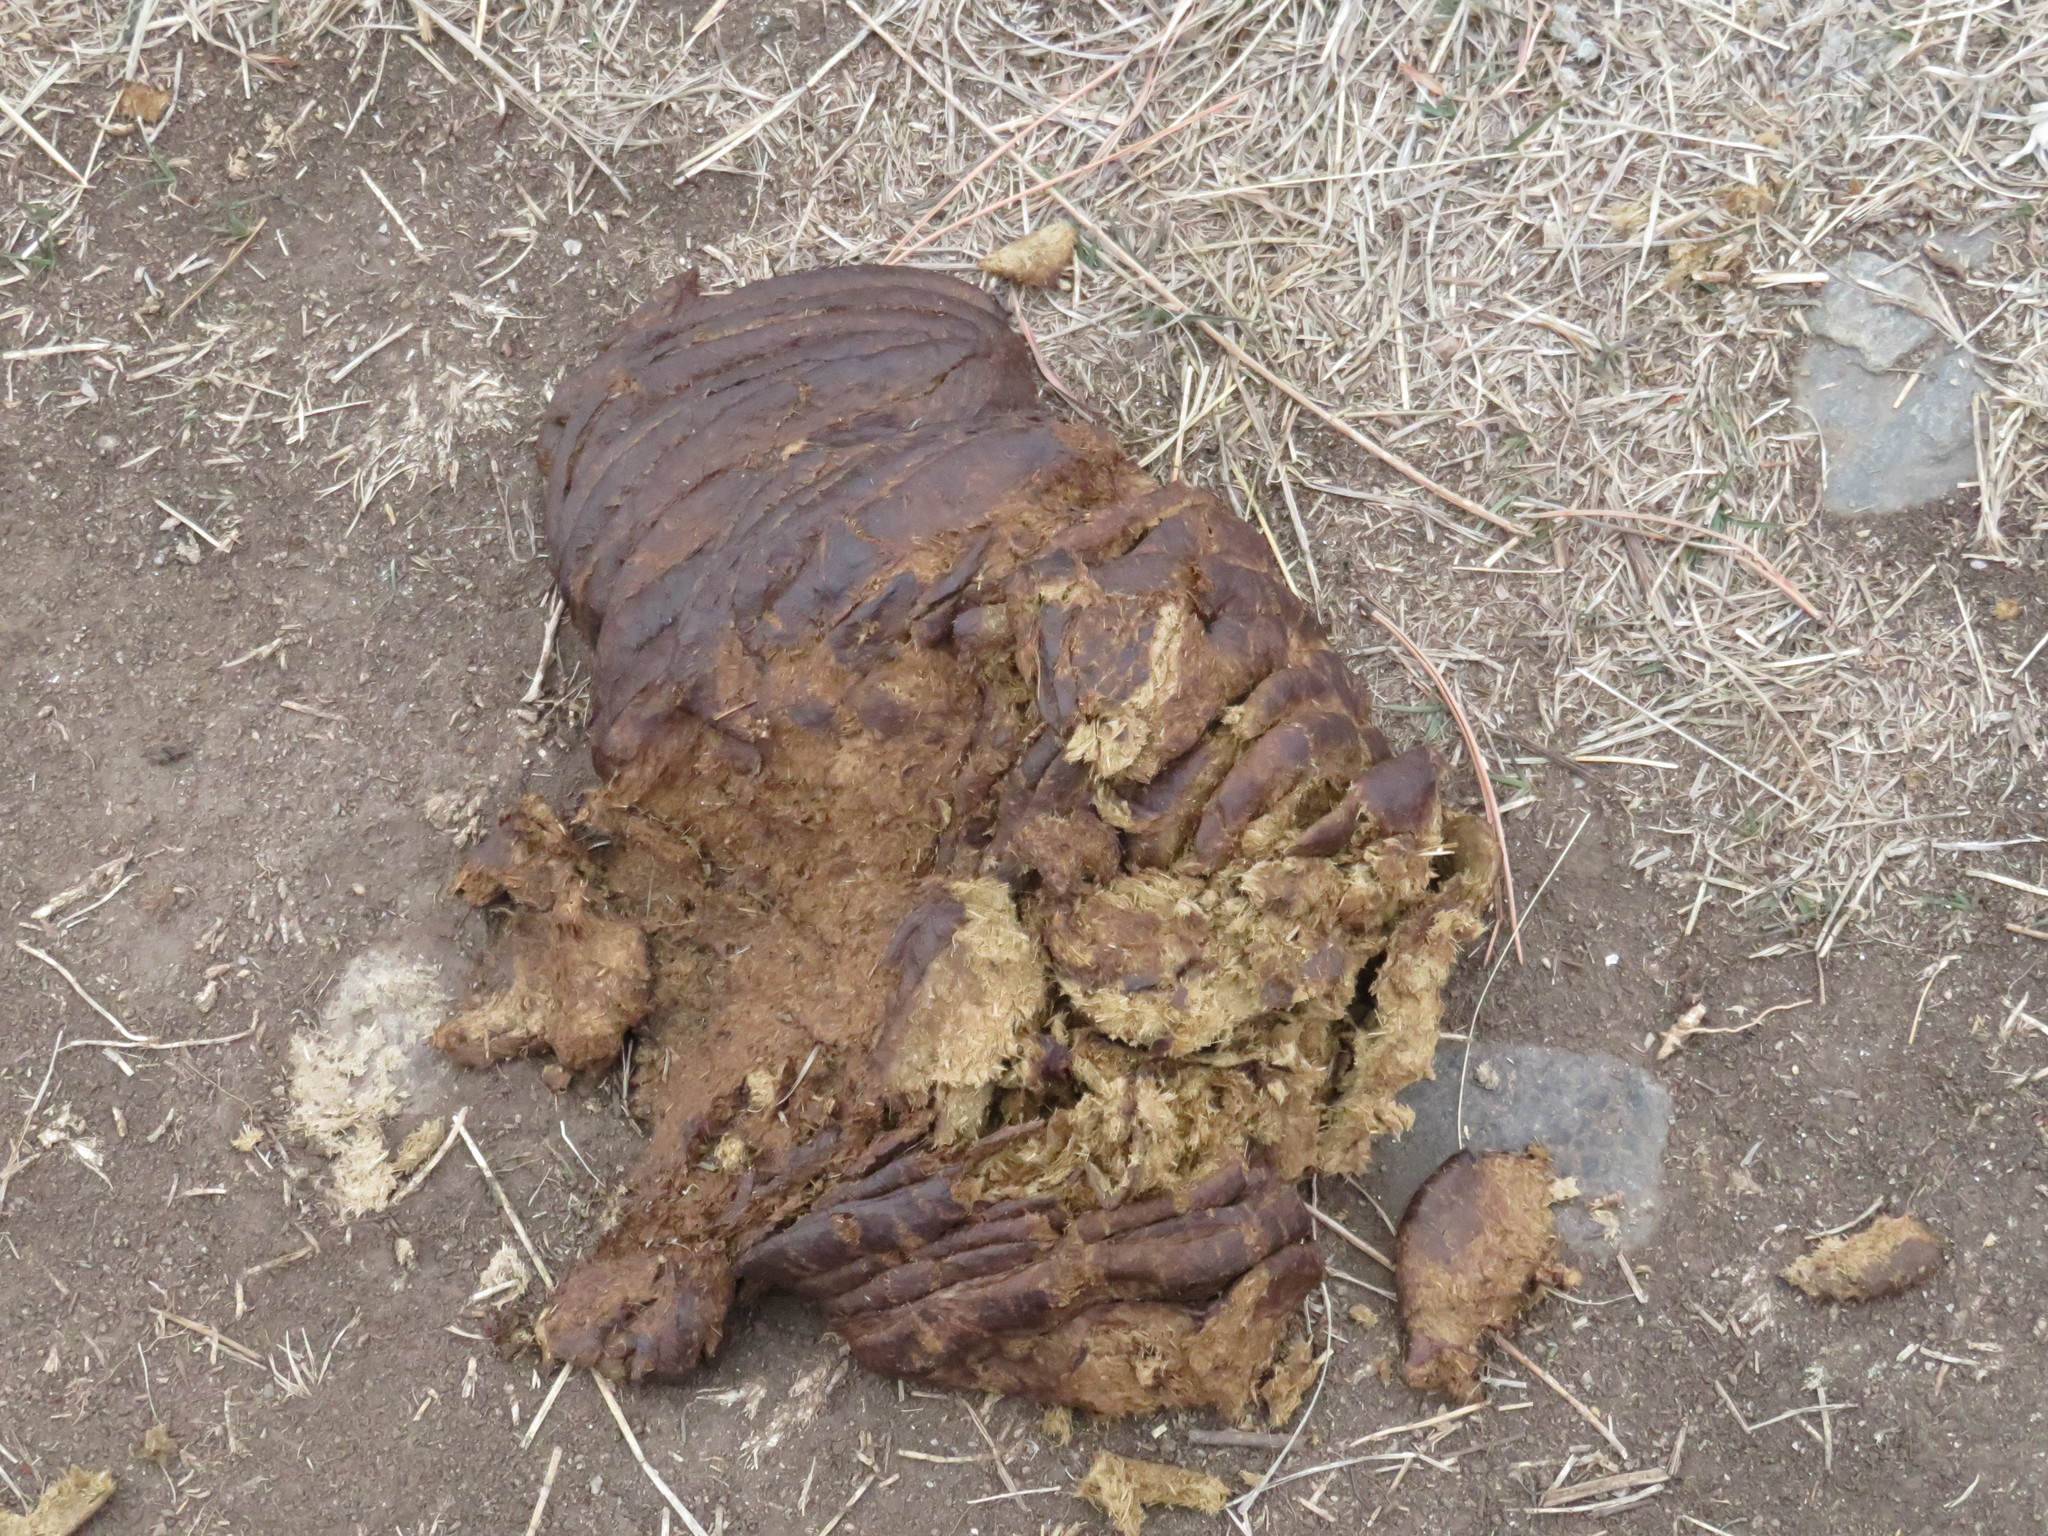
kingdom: Animalia
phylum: Chordata
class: Mammalia
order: Artiodactyla
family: Bovidae
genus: Bison
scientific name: Bison bison
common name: American bison
